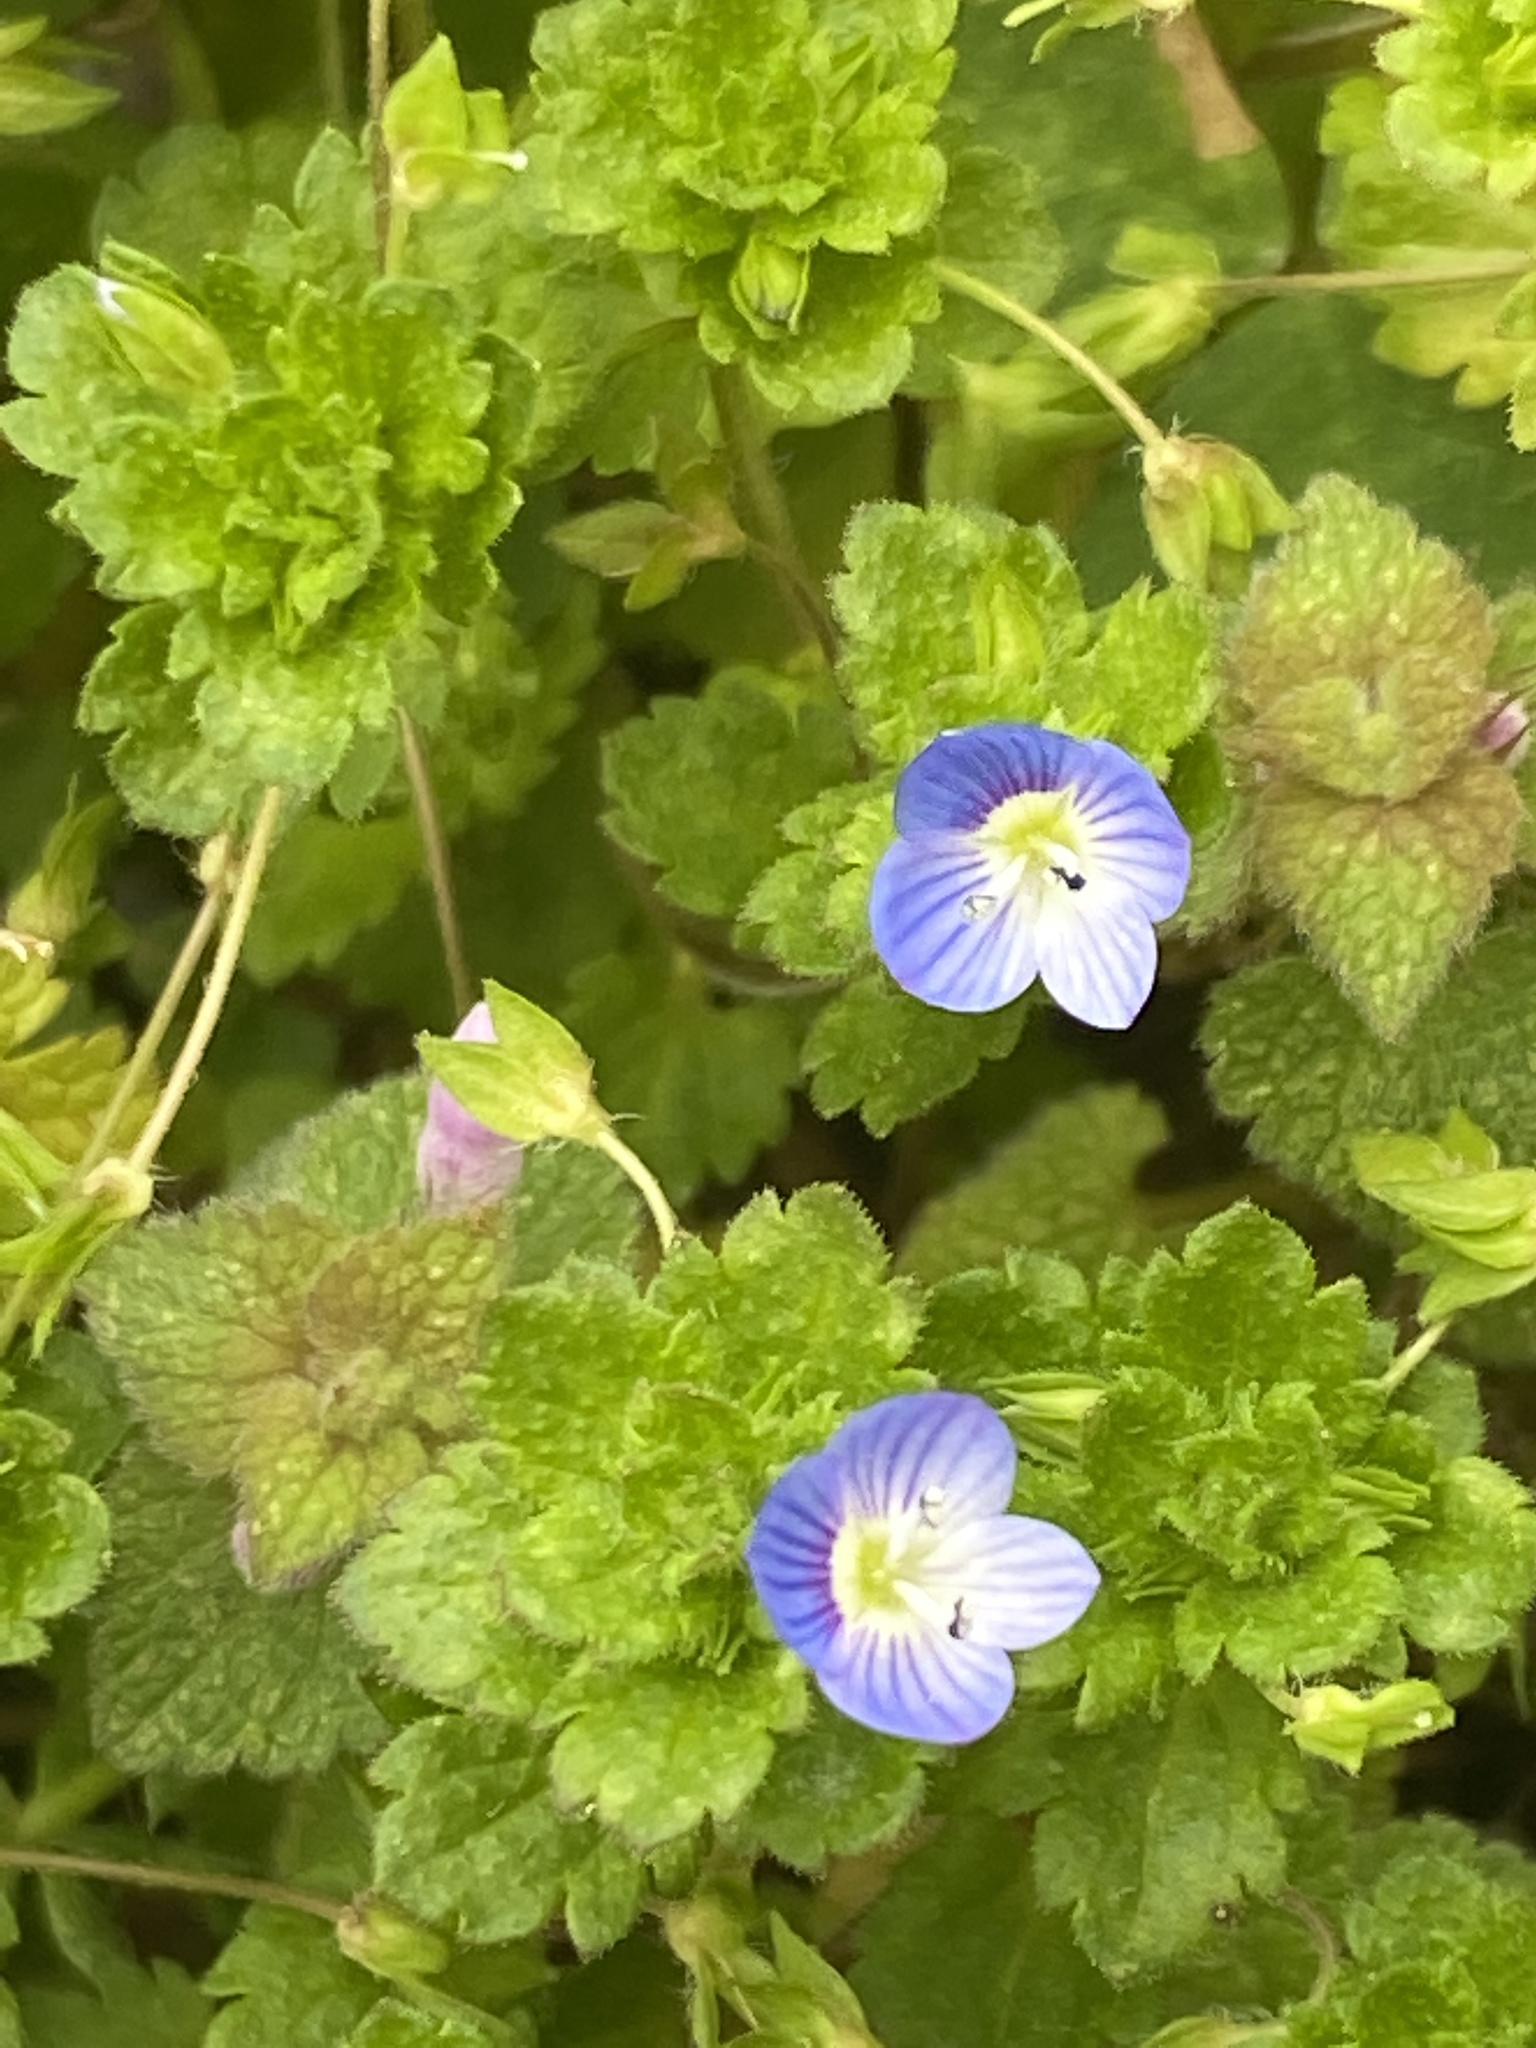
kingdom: Plantae
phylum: Tracheophyta
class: Magnoliopsida
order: Lamiales
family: Plantaginaceae
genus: Veronica
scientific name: Veronica persica
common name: Common field-speedwell
